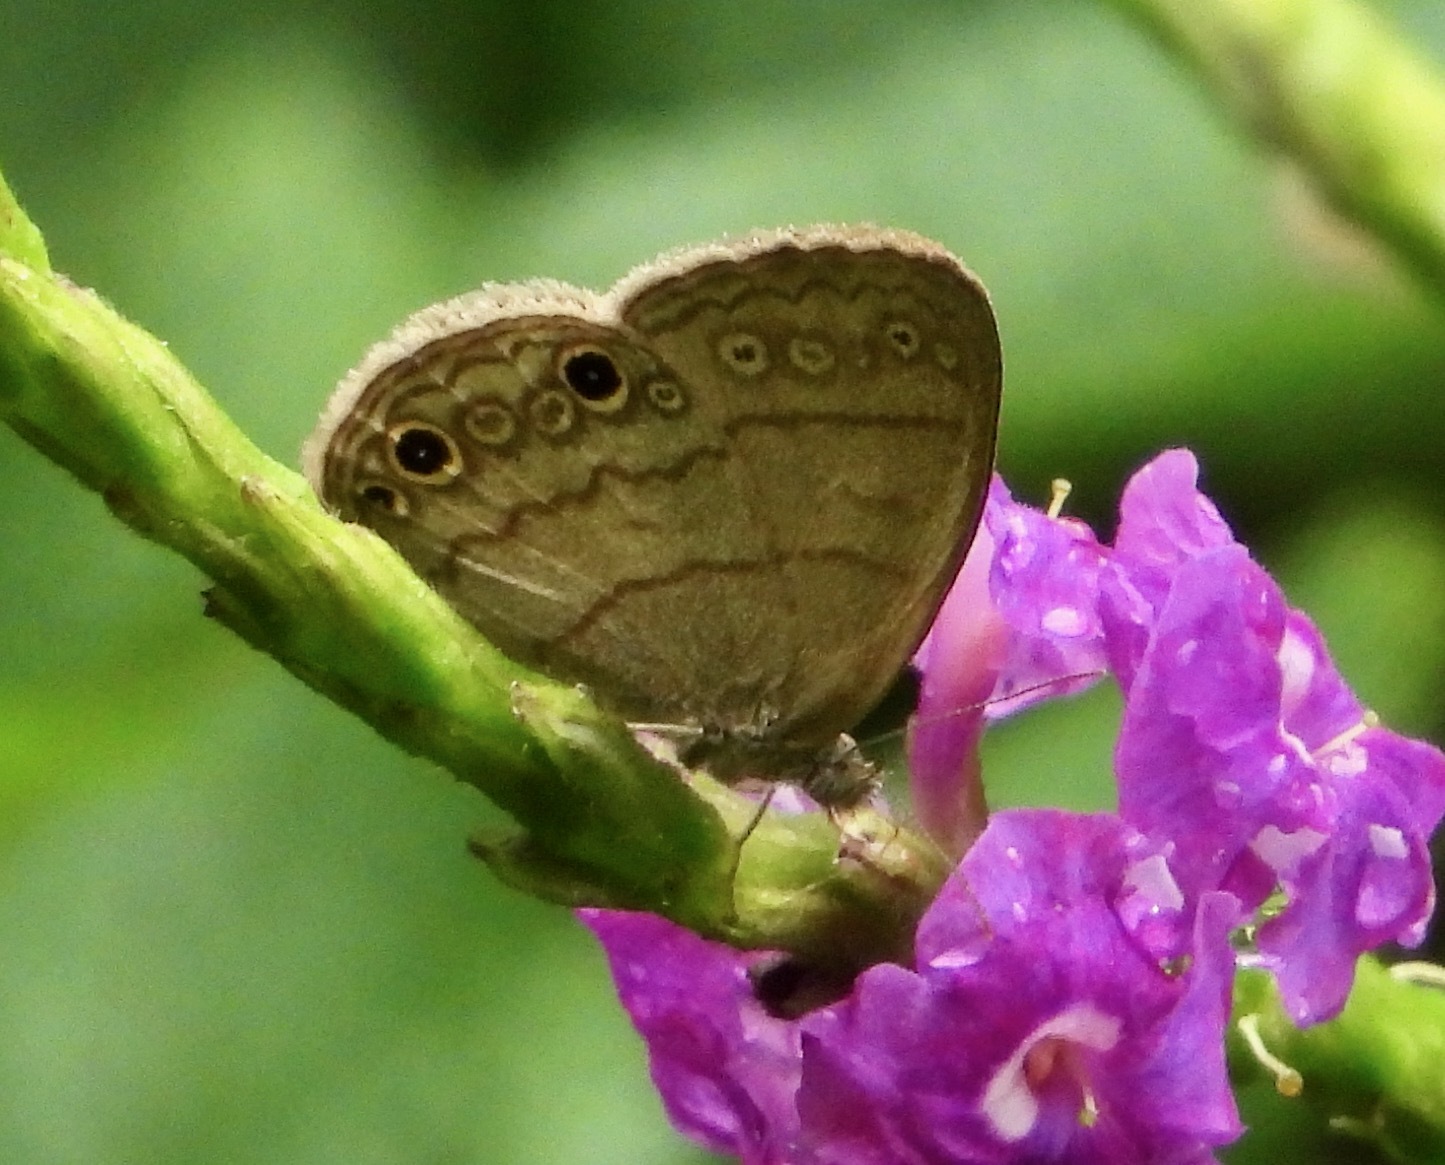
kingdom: Animalia
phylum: Arthropoda
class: Insecta
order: Lepidoptera
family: Nymphalidae
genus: Hermeuptychia
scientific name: Hermeuptychia hermes
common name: Hermes satyr
